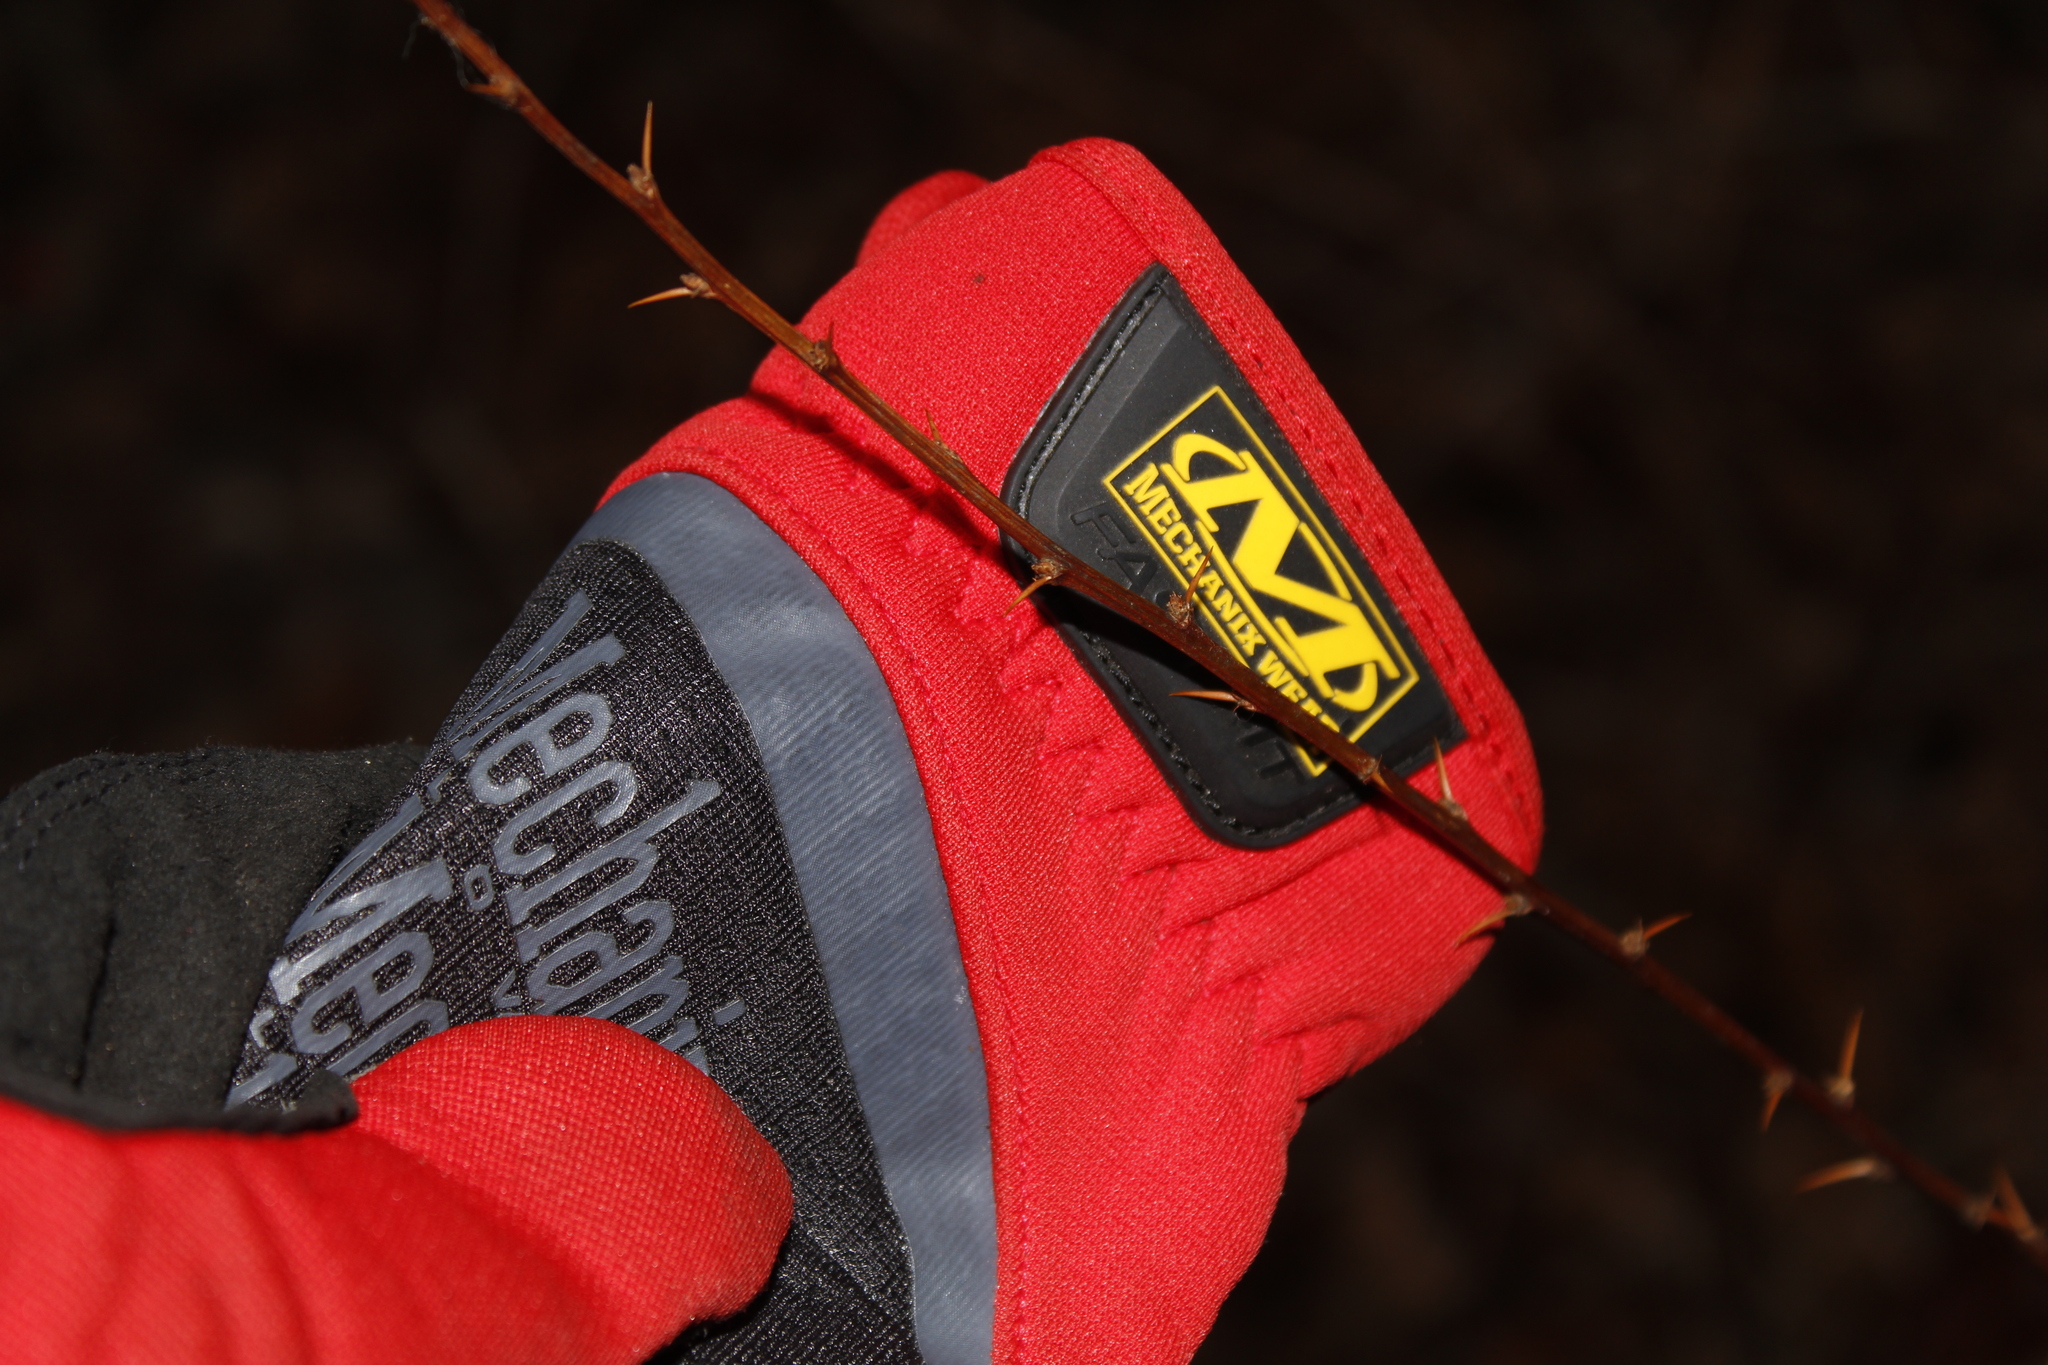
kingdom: Plantae
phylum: Tracheophyta
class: Magnoliopsida
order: Ranunculales
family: Berberidaceae
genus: Berberis
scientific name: Berberis thunbergii
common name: Japanese barberry
